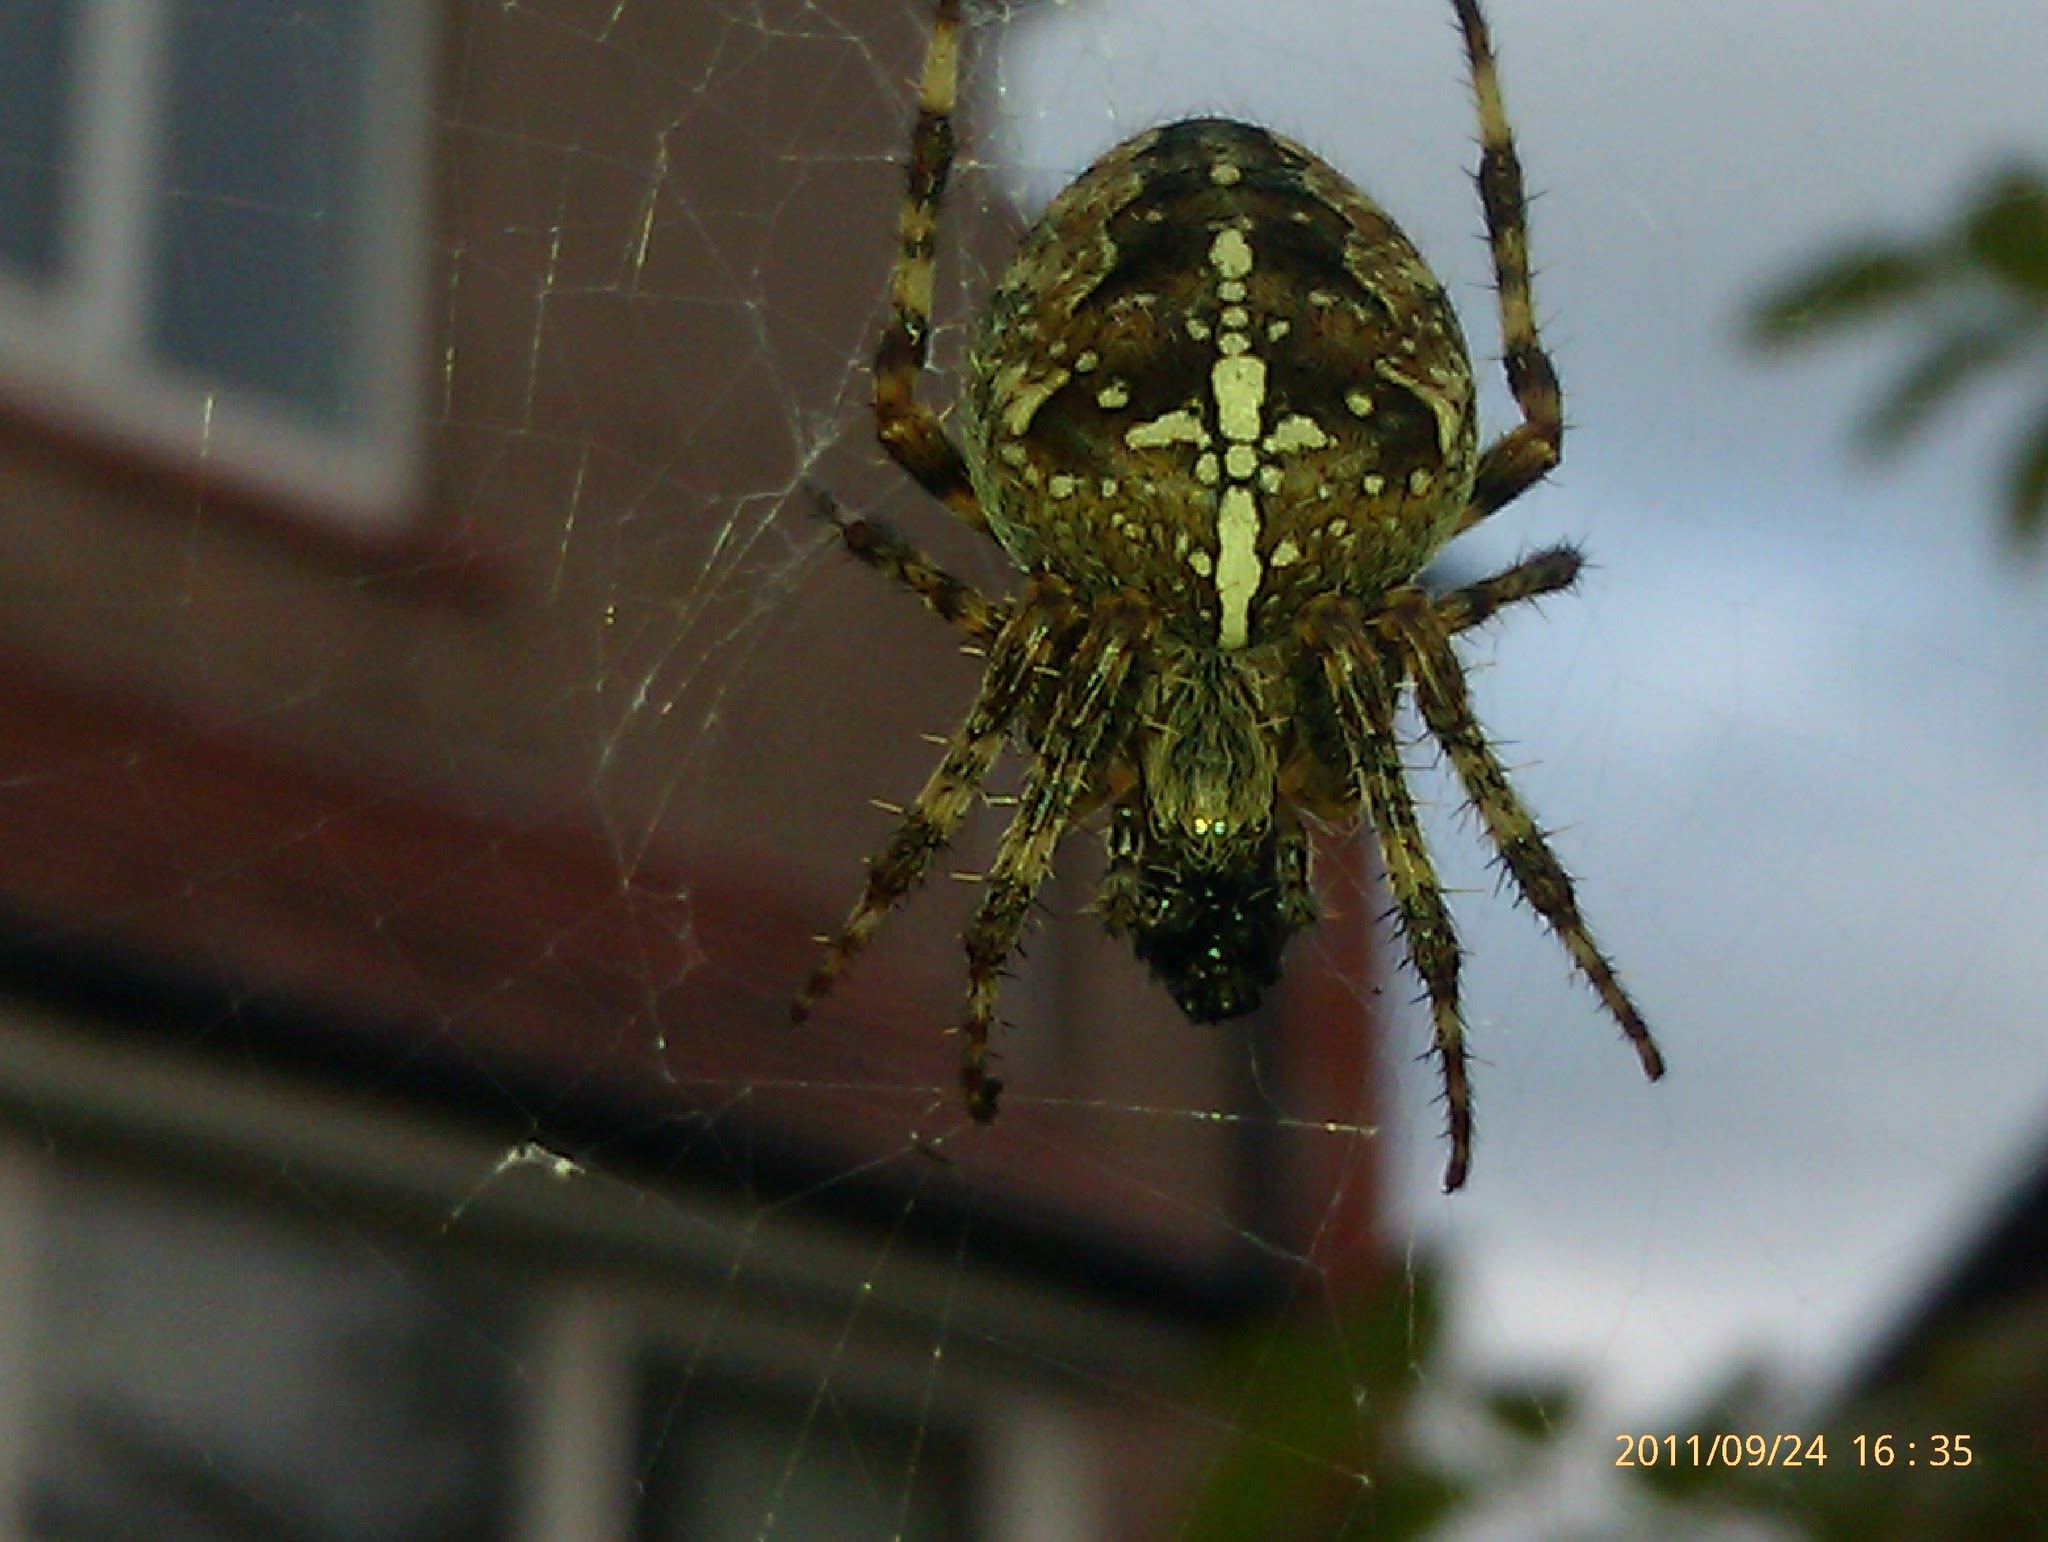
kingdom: Animalia
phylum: Arthropoda
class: Arachnida
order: Araneae
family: Araneidae
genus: Araneus
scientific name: Araneus diadematus
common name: Cross orbweaver
